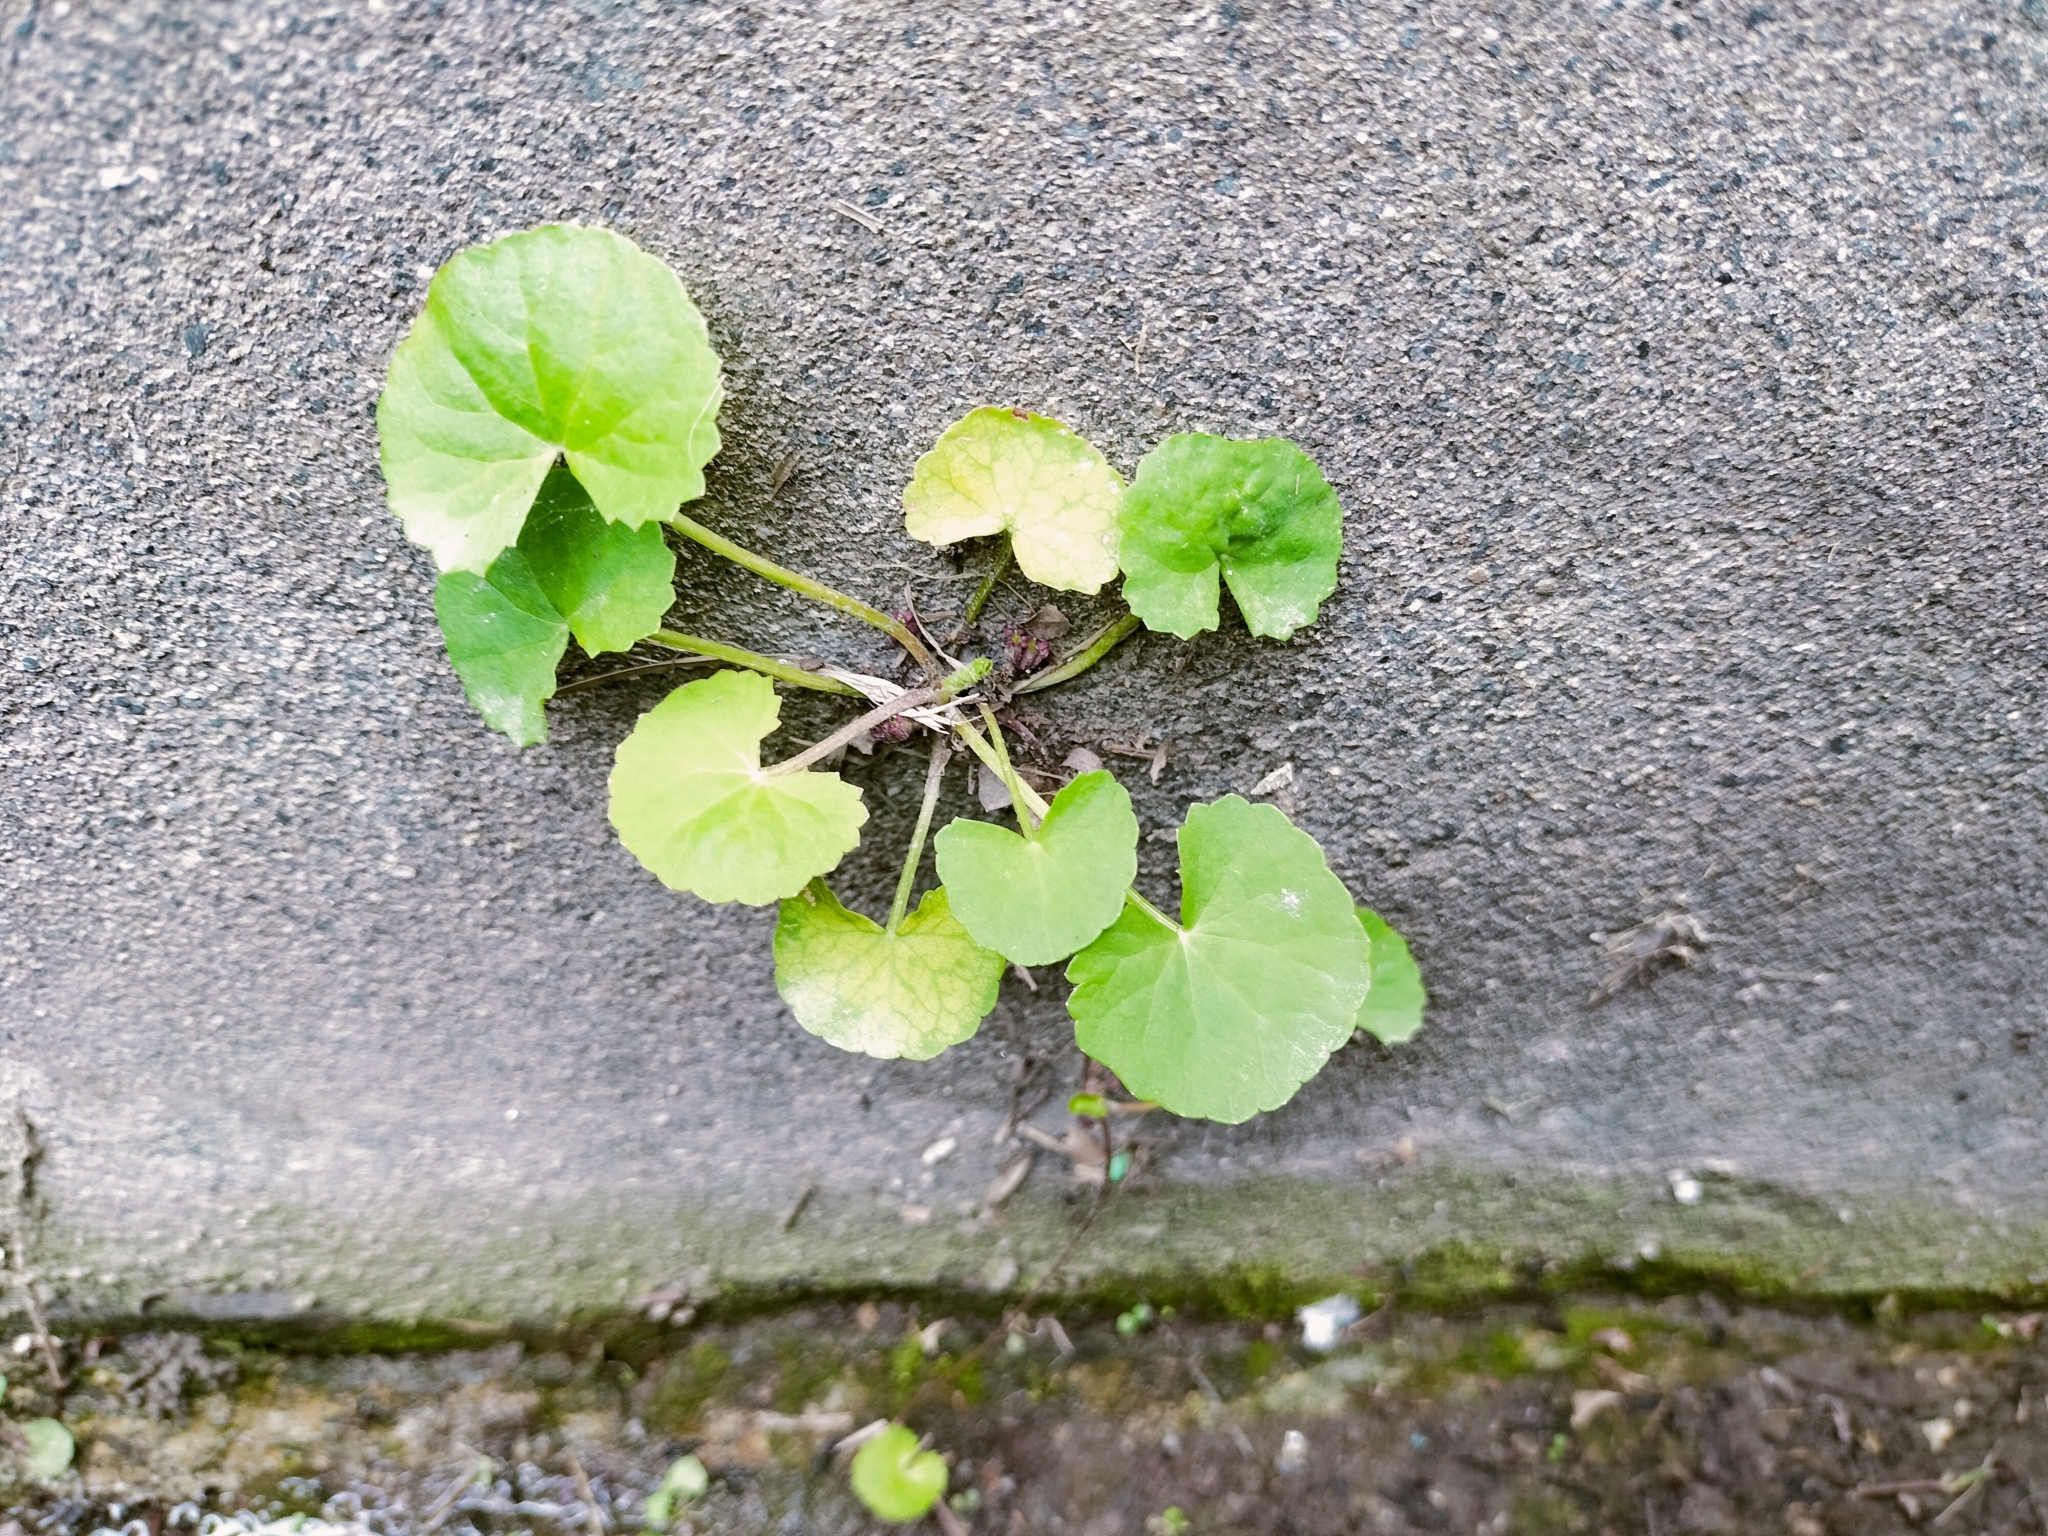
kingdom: Plantae
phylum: Tracheophyta
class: Magnoliopsida
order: Apiales
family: Apiaceae
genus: Centella
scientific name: Centella asiatica
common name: Spadeleaf
